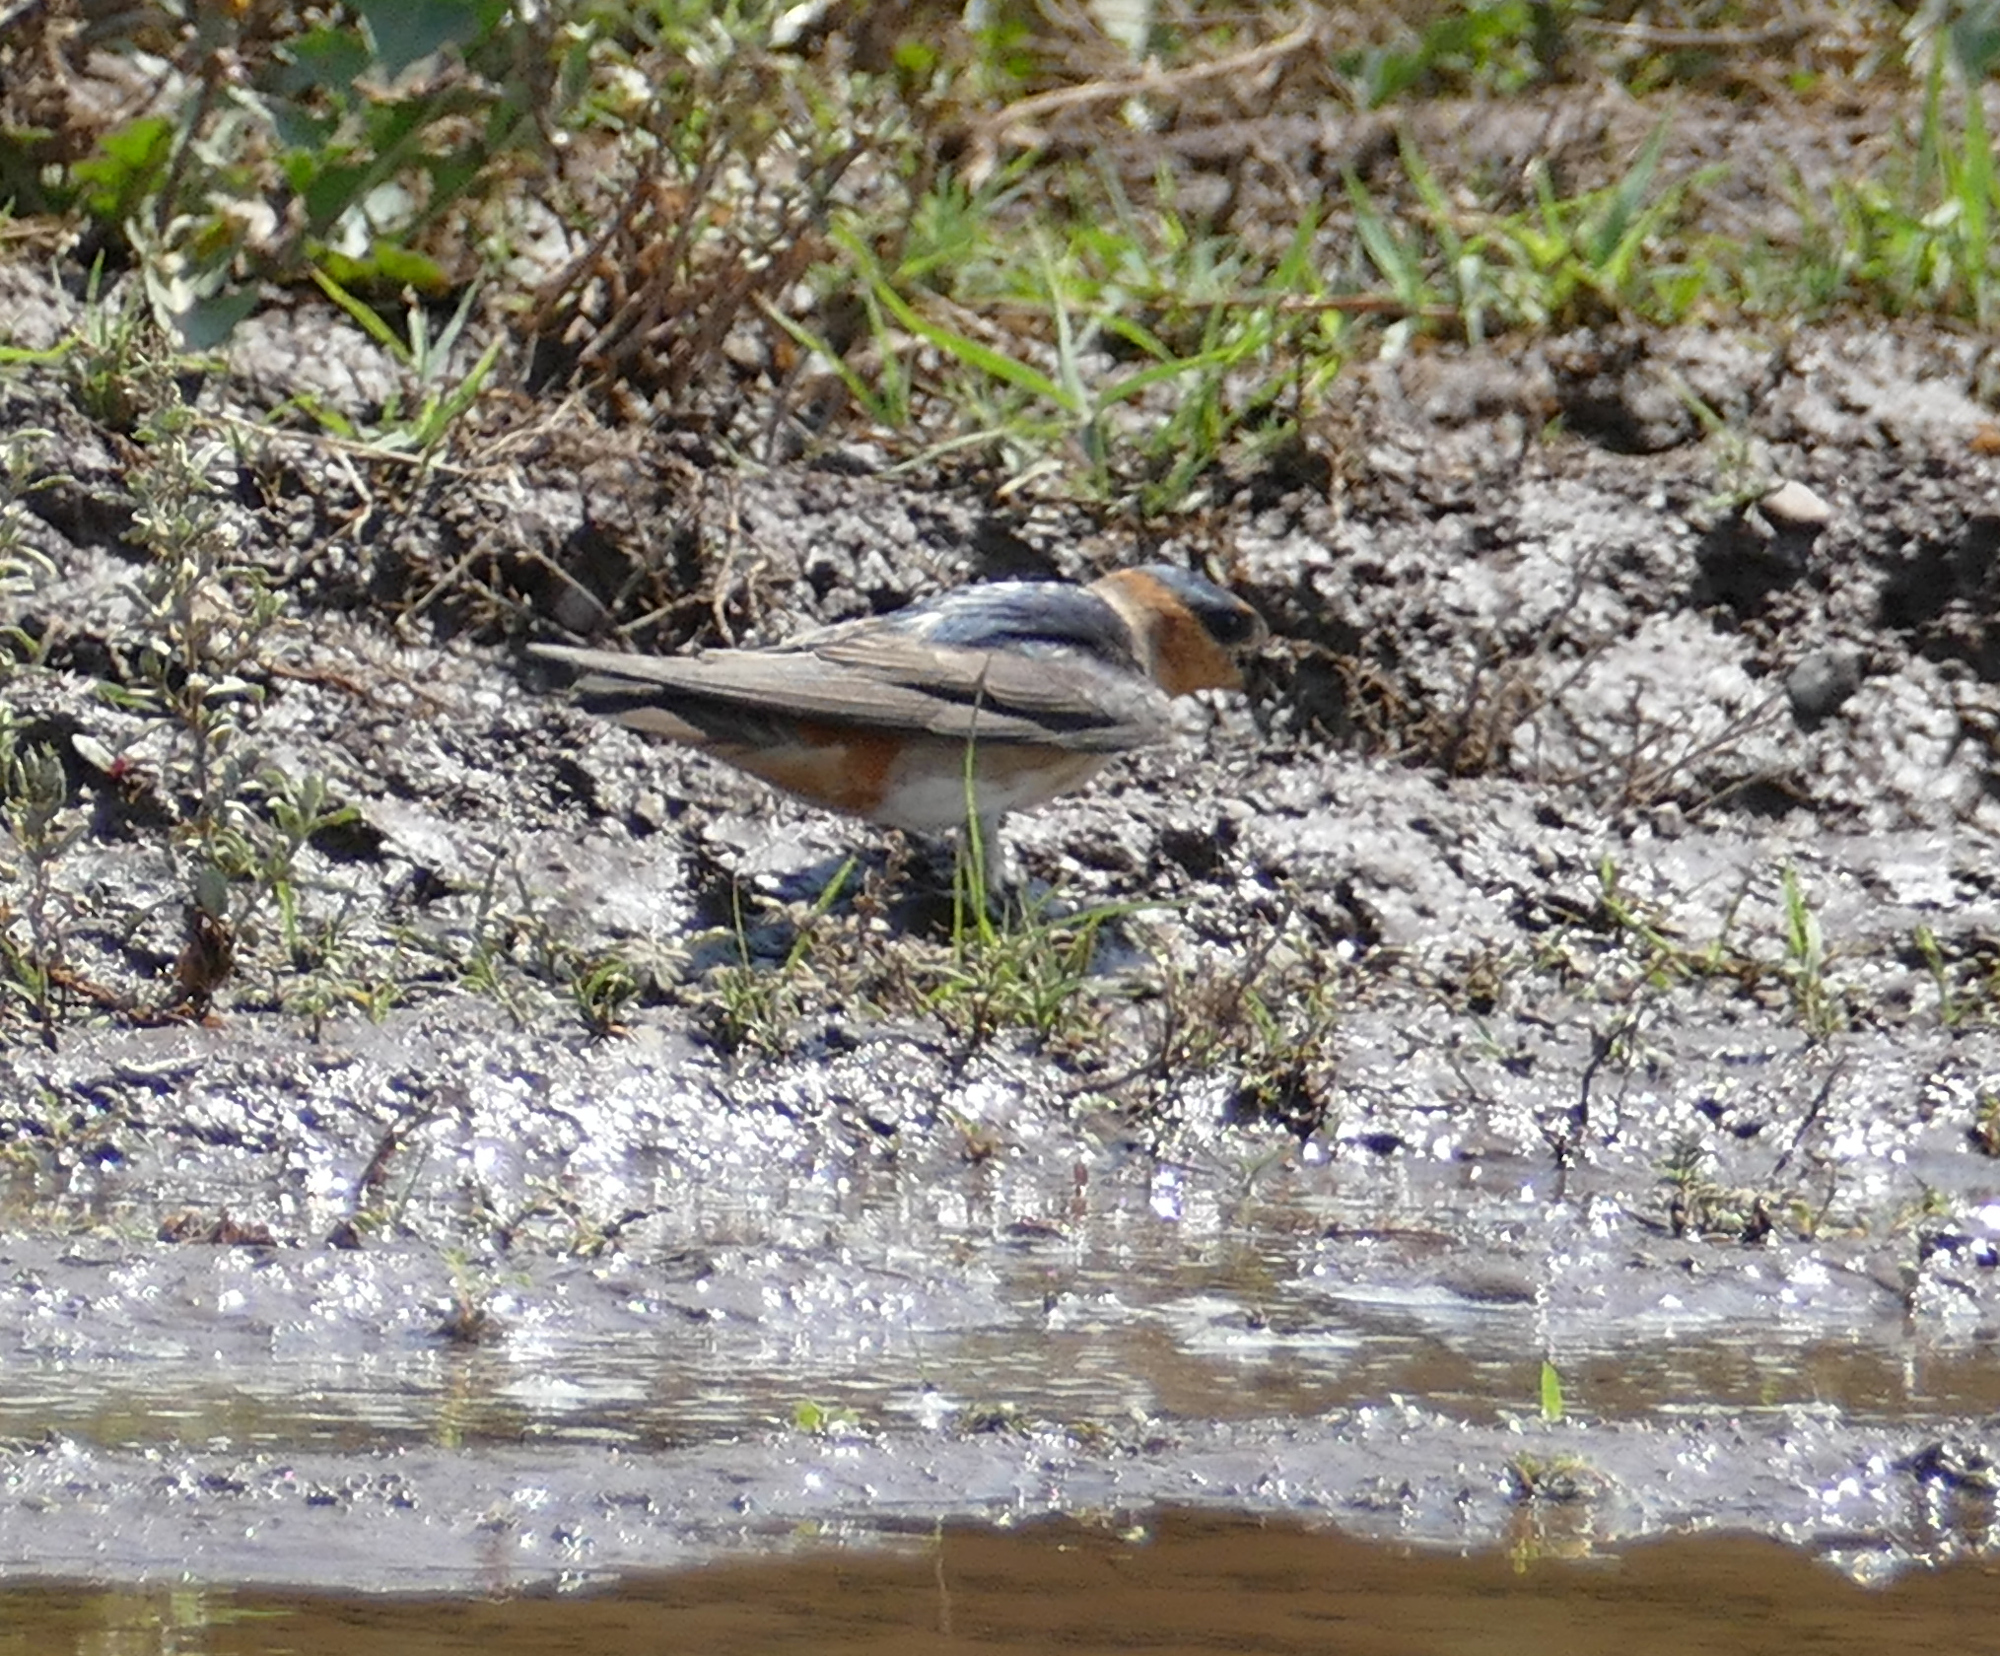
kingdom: Animalia
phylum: Chordata
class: Aves
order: Passeriformes
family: Hirundinidae
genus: Petrochelidon
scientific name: Petrochelidon fulva
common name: Cave swallow
